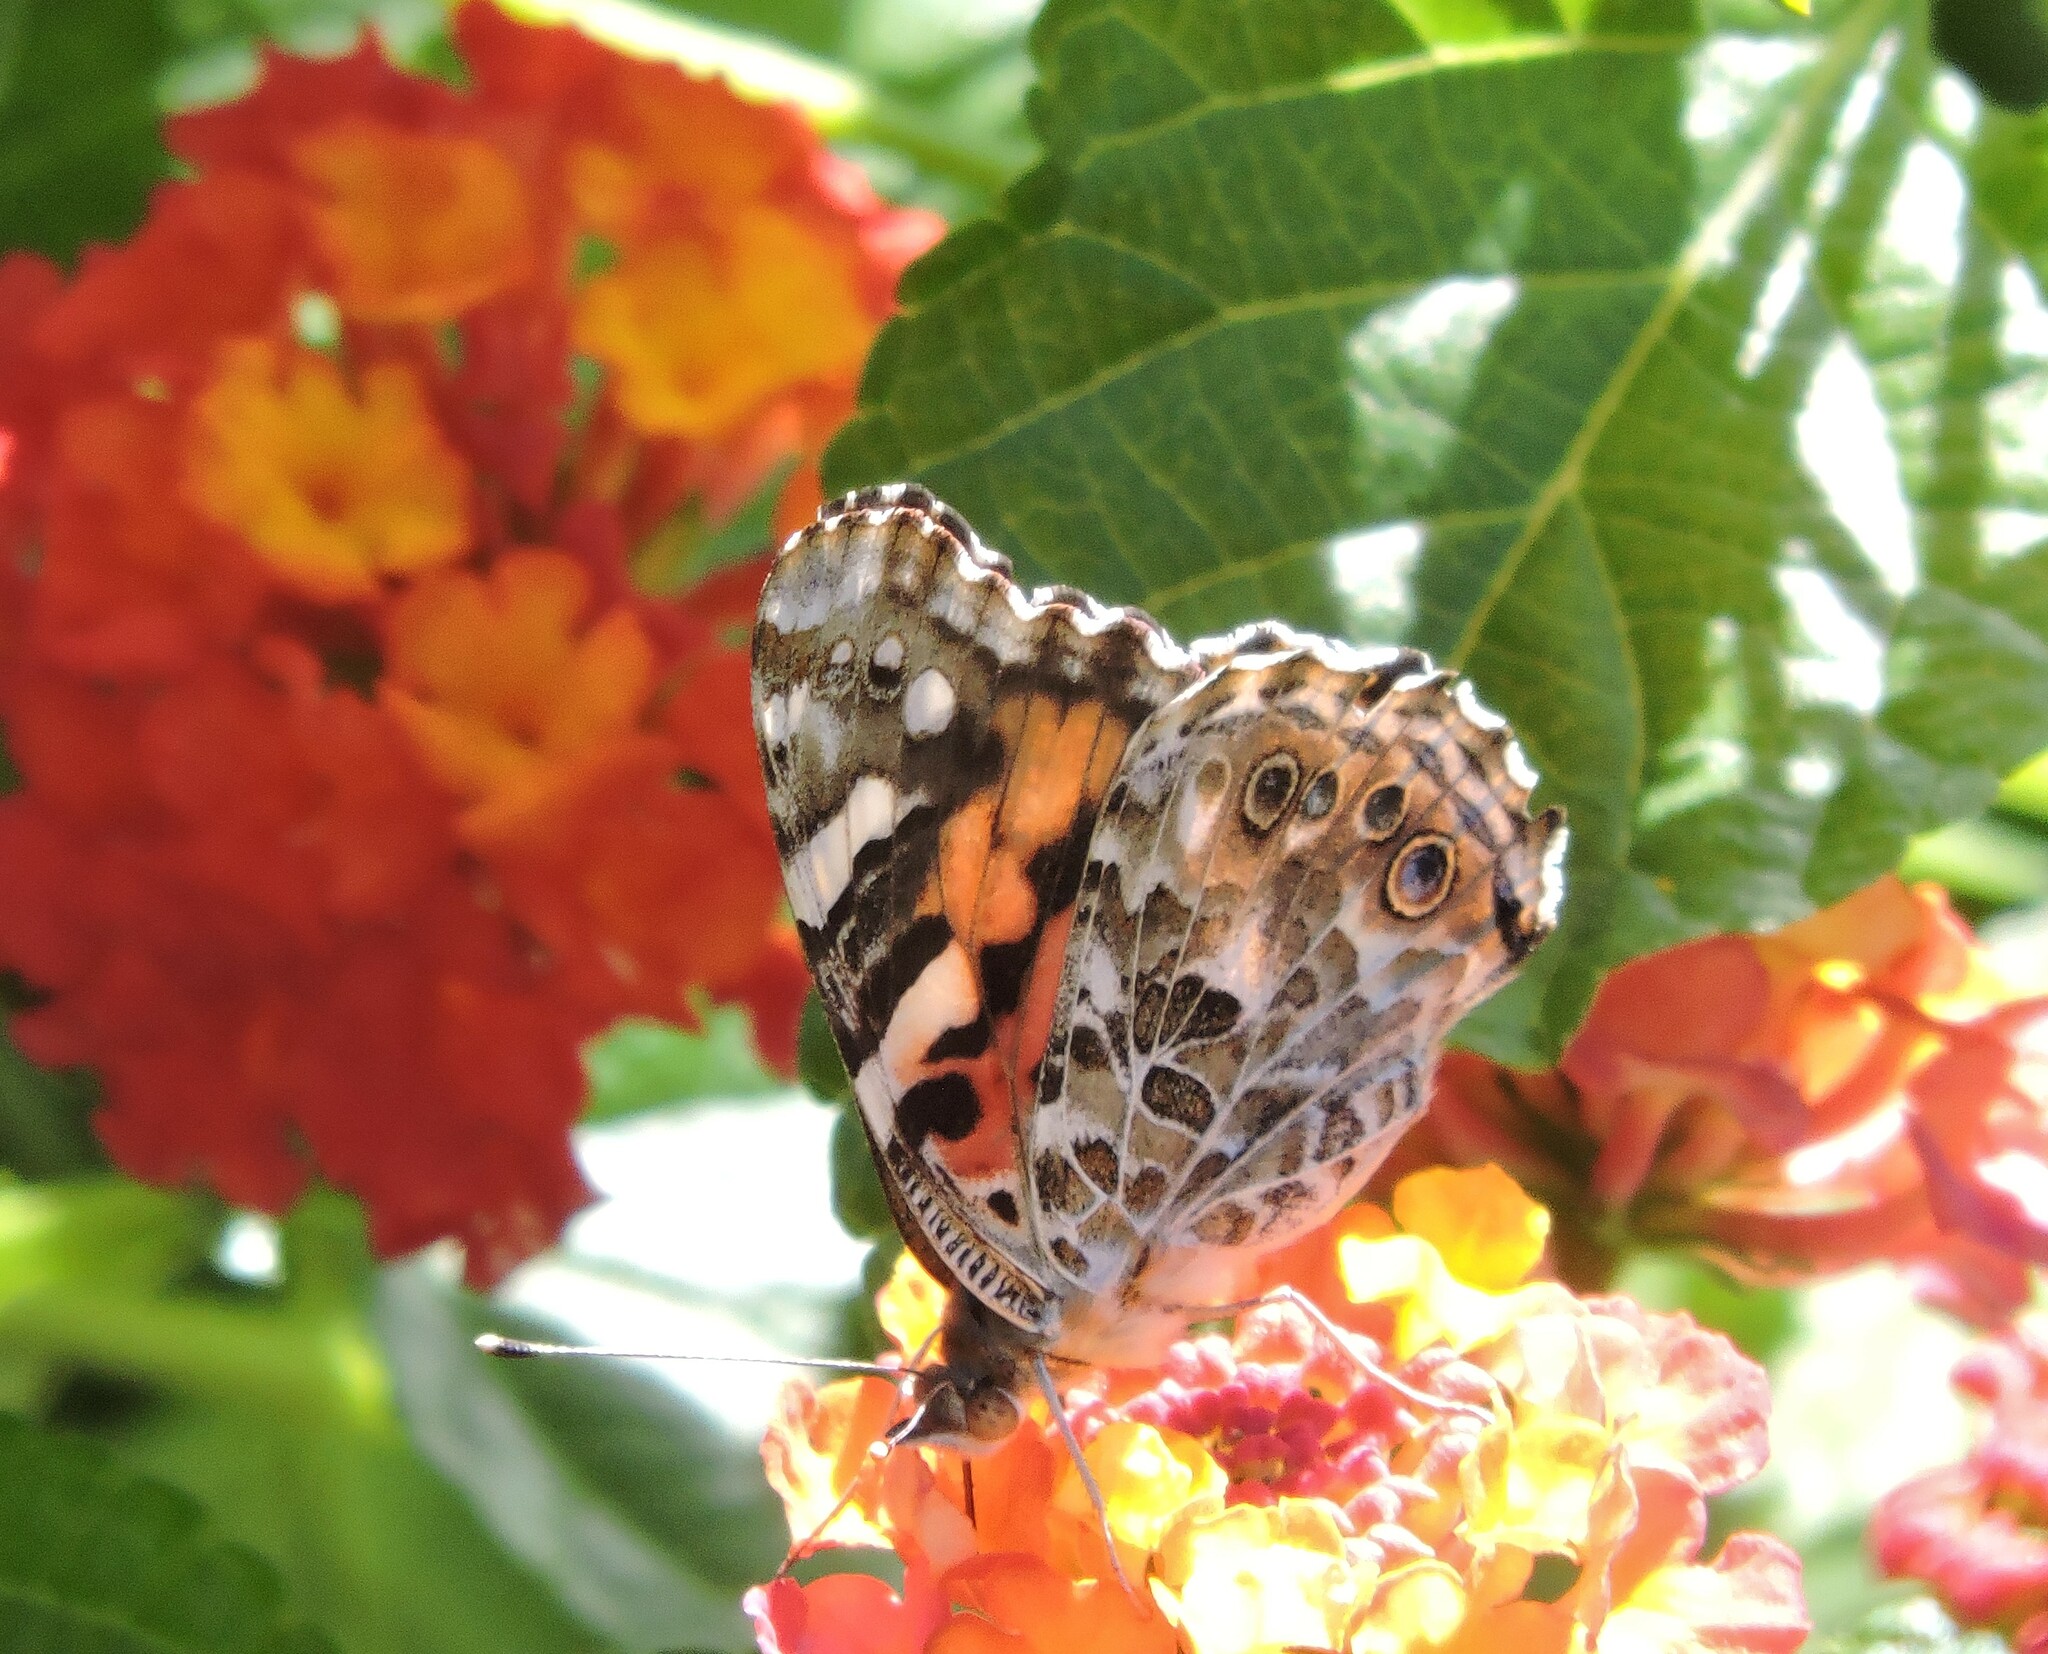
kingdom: Animalia
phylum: Arthropoda
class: Insecta
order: Lepidoptera
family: Nymphalidae
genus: Vanessa
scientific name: Vanessa cardui
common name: Painted lady
